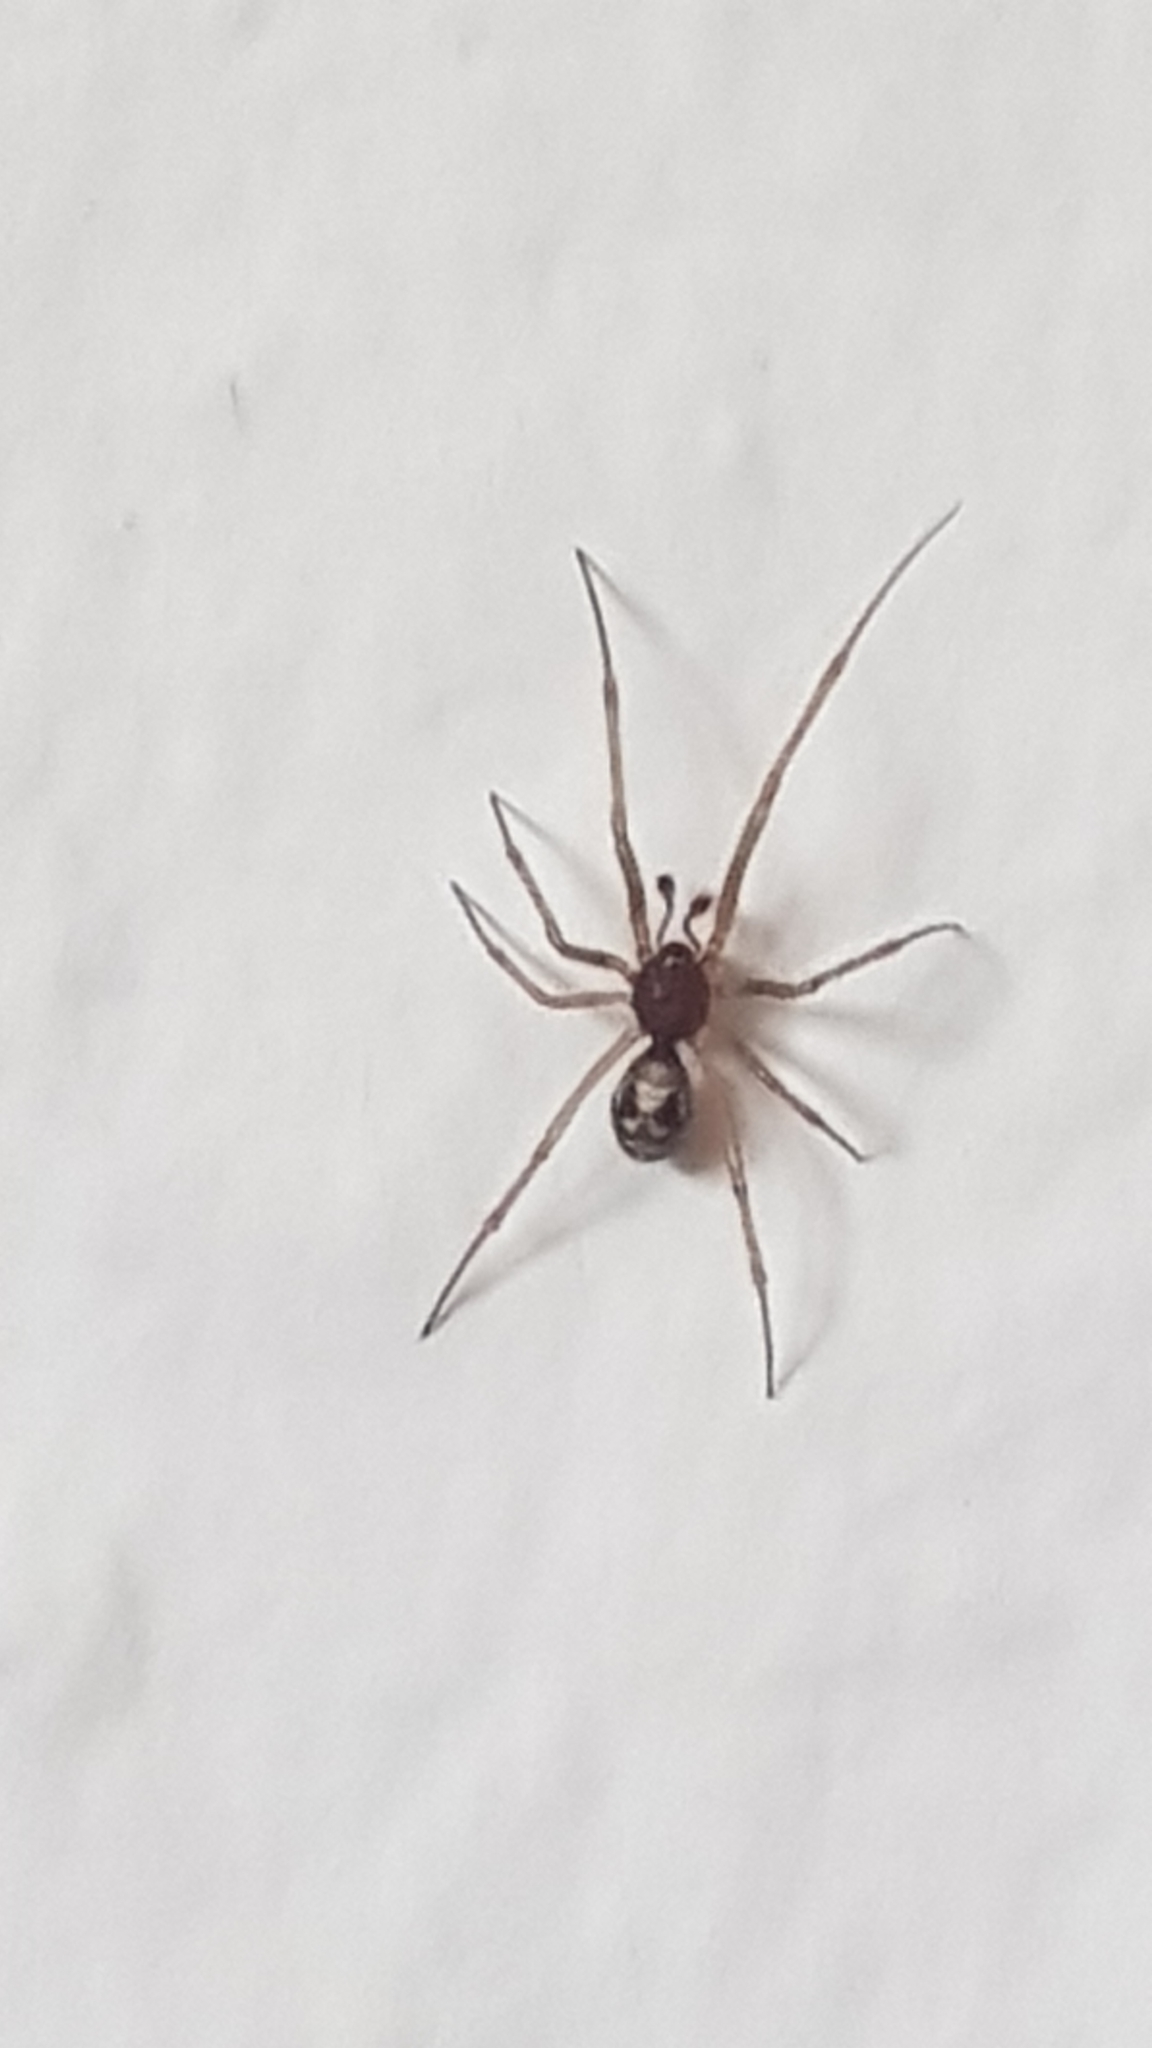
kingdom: Animalia
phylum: Arthropoda
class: Arachnida
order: Araneae
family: Theridiidae
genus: Steatoda
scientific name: Steatoda triangulosa
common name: Triangulate bud spider
